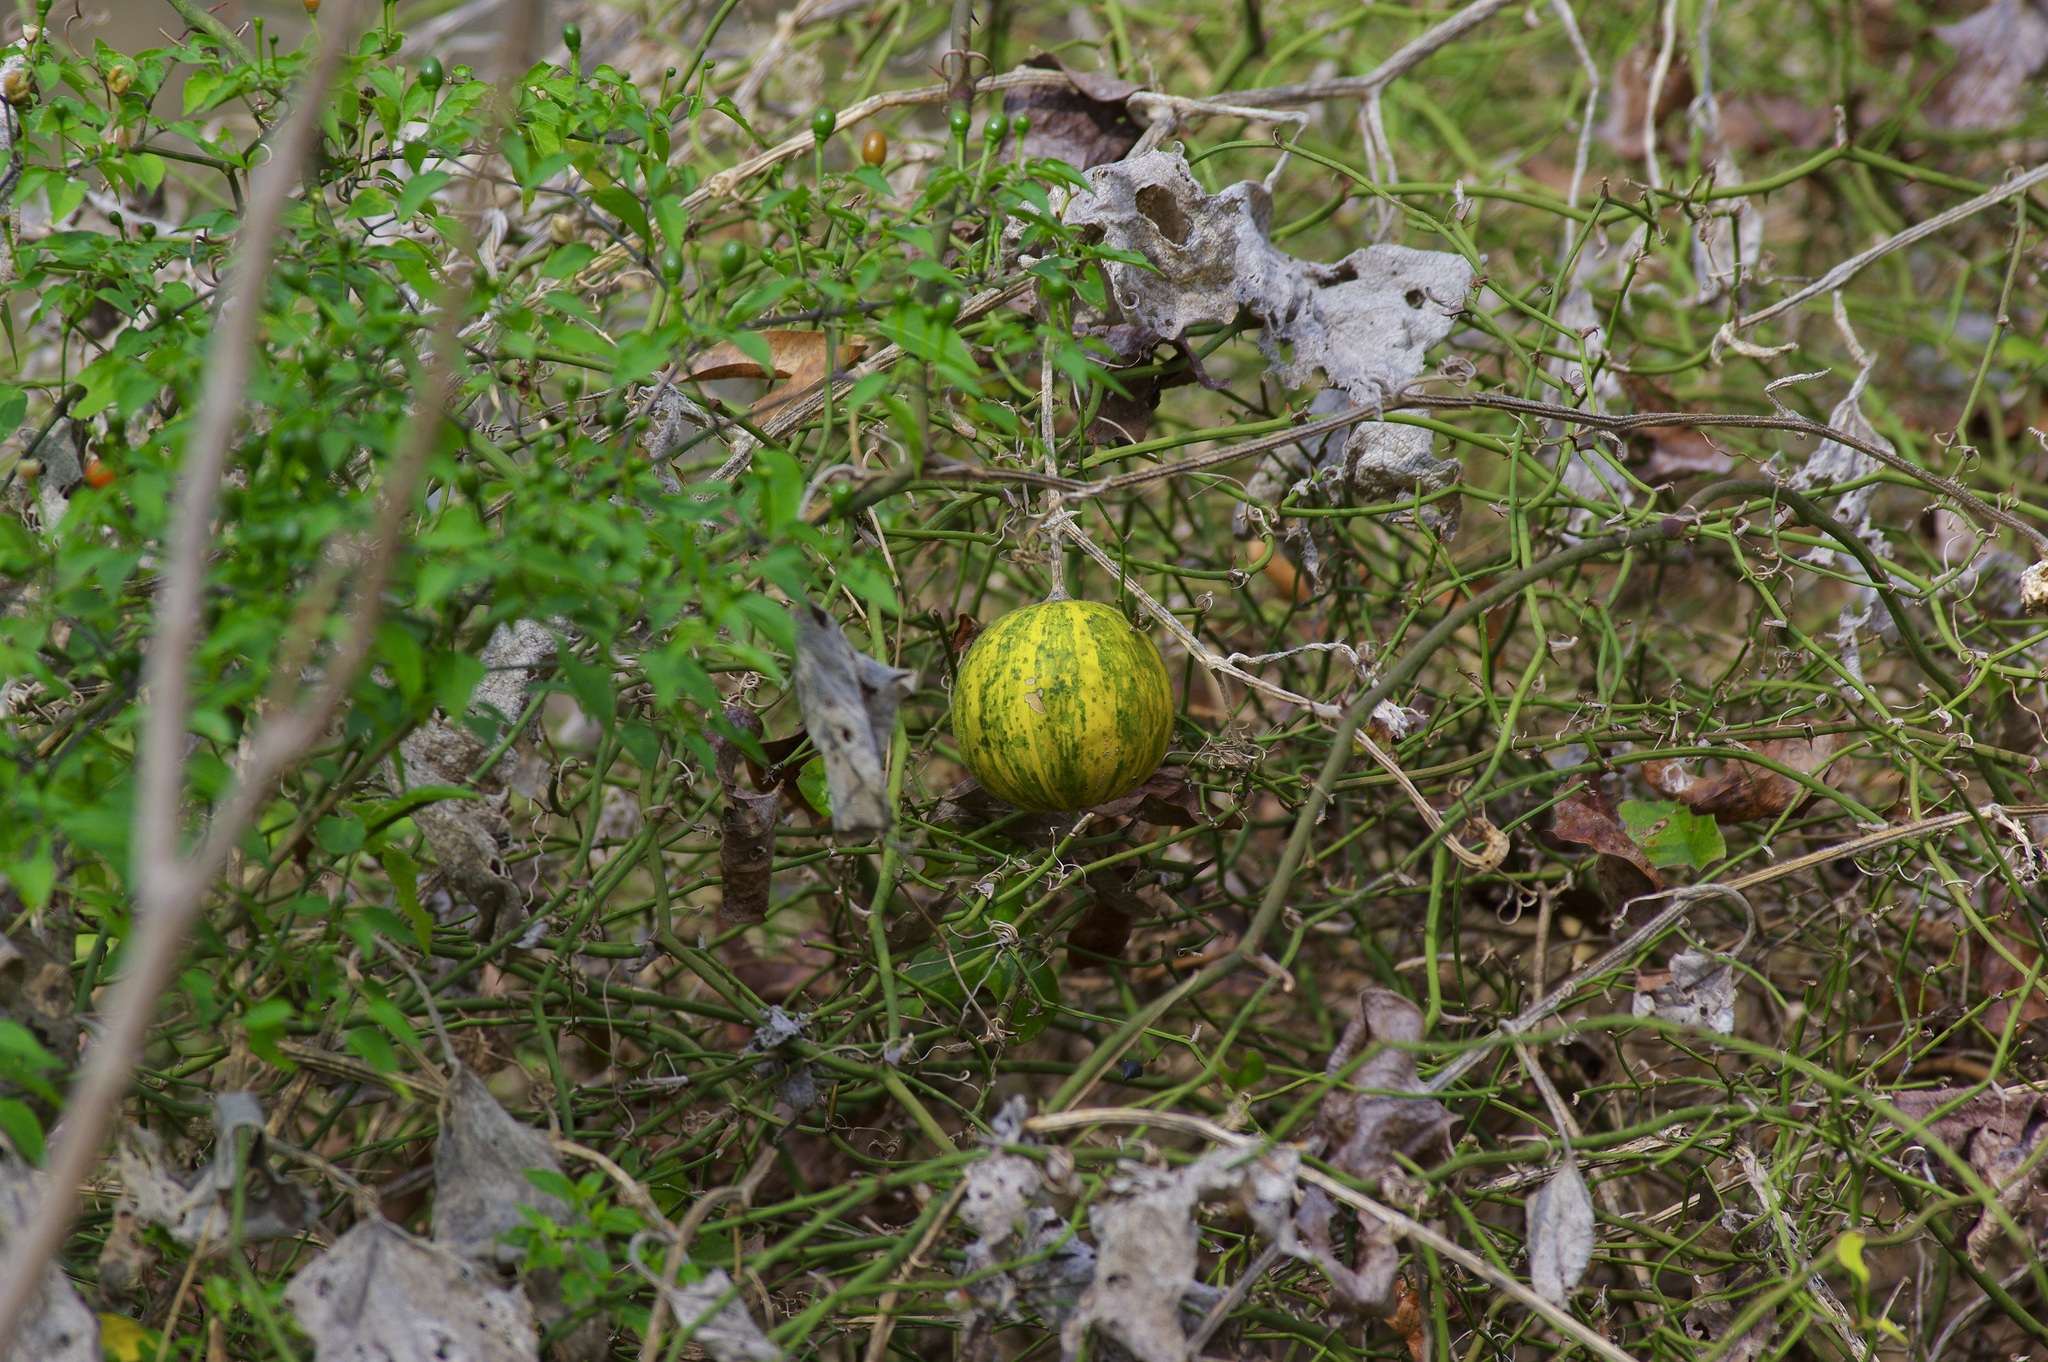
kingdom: Plantae
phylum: Tracheophyta
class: Magnoliopsida
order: Cucurbitales
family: Cucurbitaceae
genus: Cucurbita
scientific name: Cucurbita foetidissima
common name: Buffalo gourd
